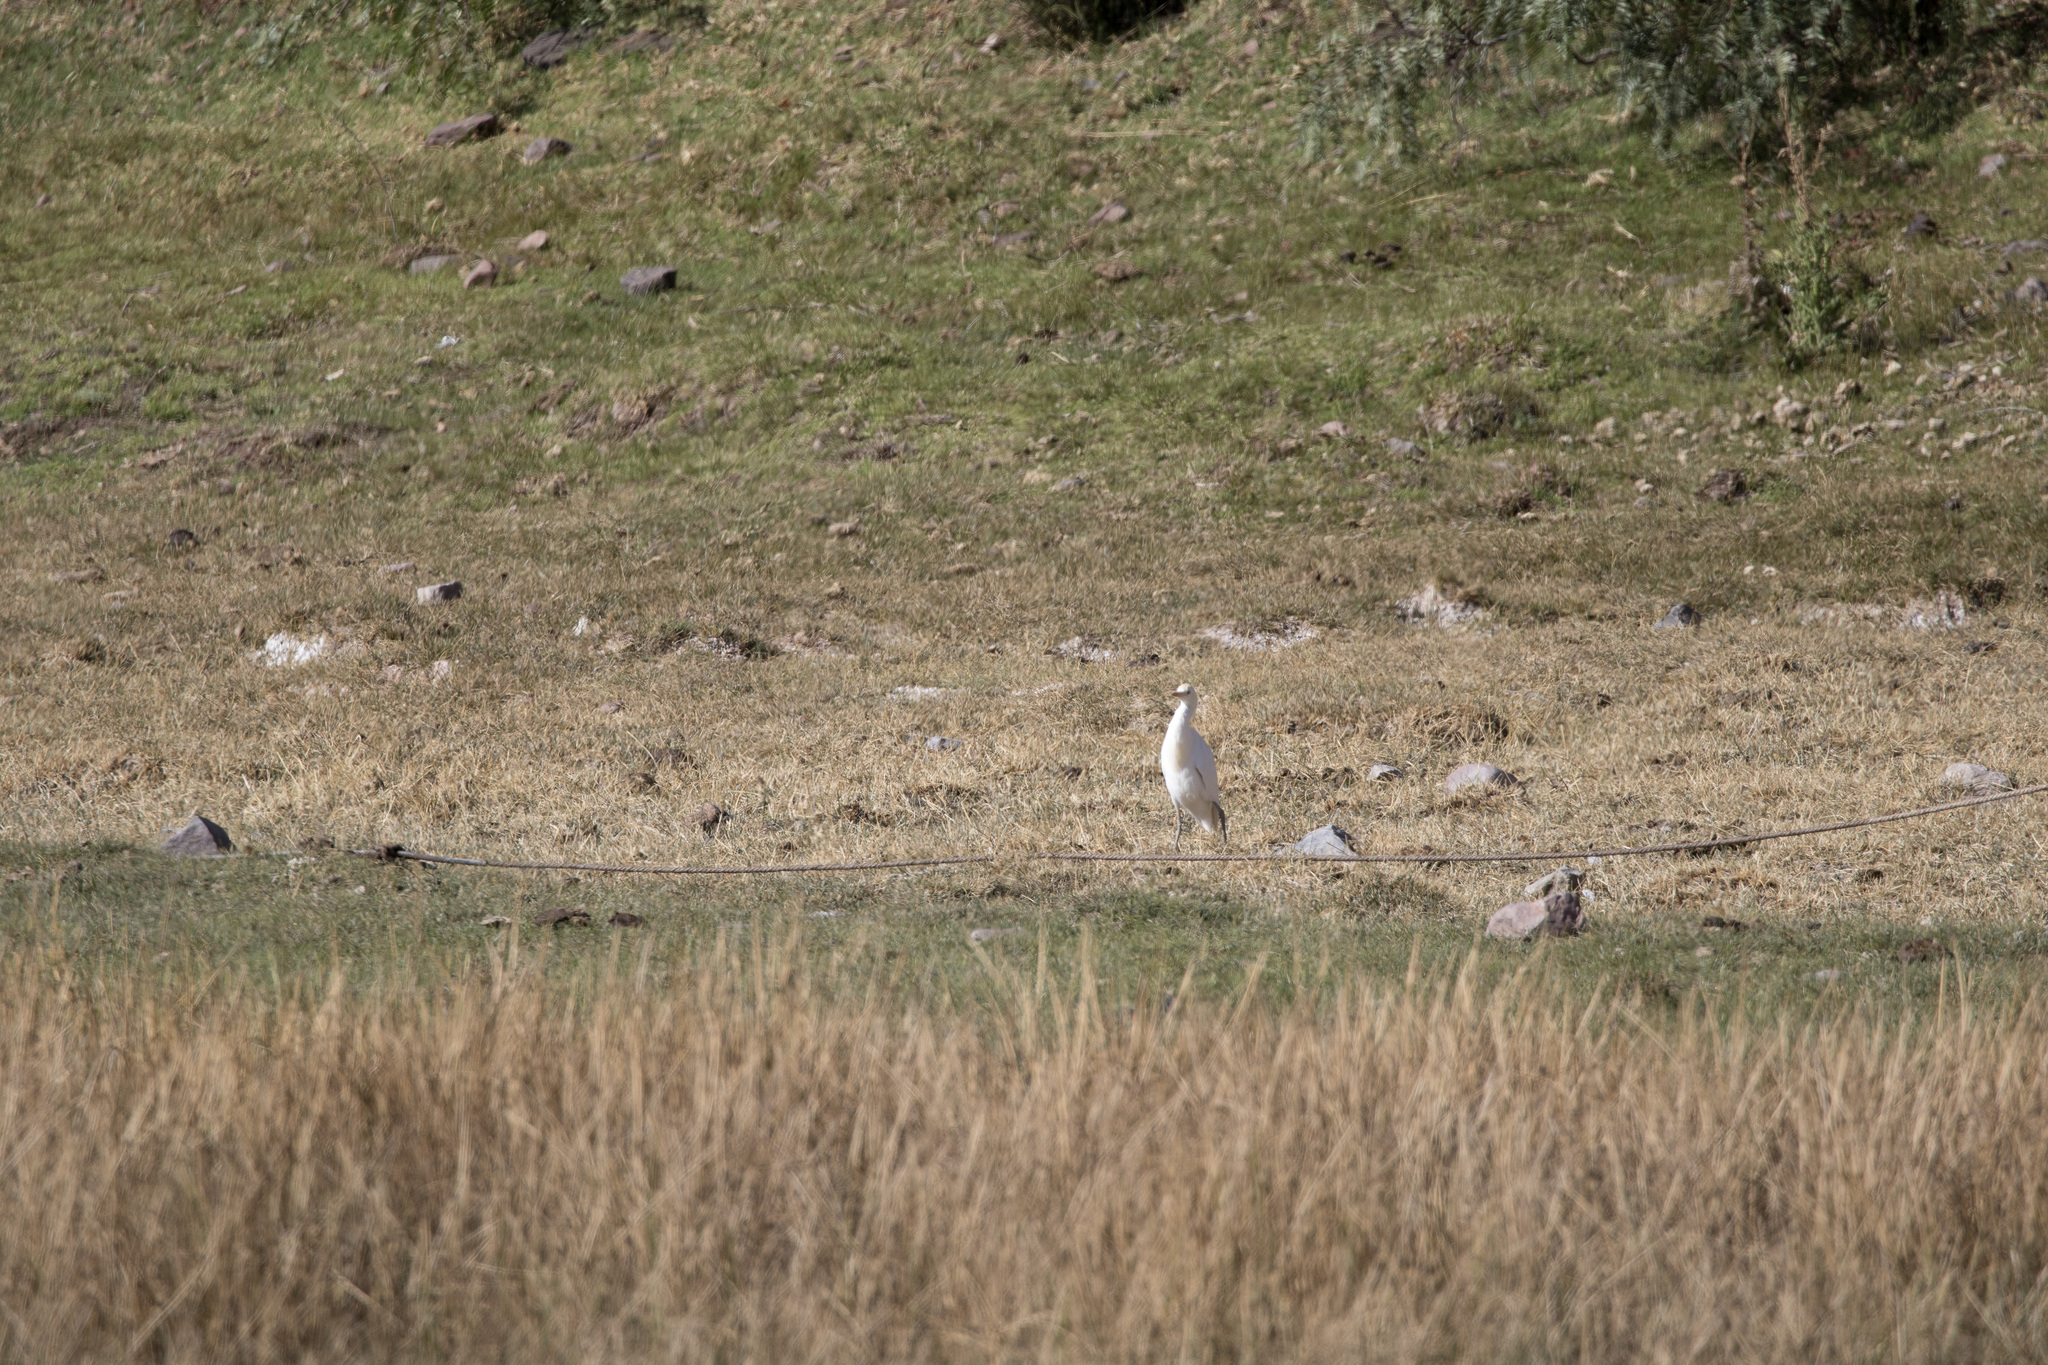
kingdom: Animalia
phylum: Chordata
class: Aves
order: Pelecaniformes
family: Ardeidae
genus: Bubulcus
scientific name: Bubulcus ibis
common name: Cattle egret
